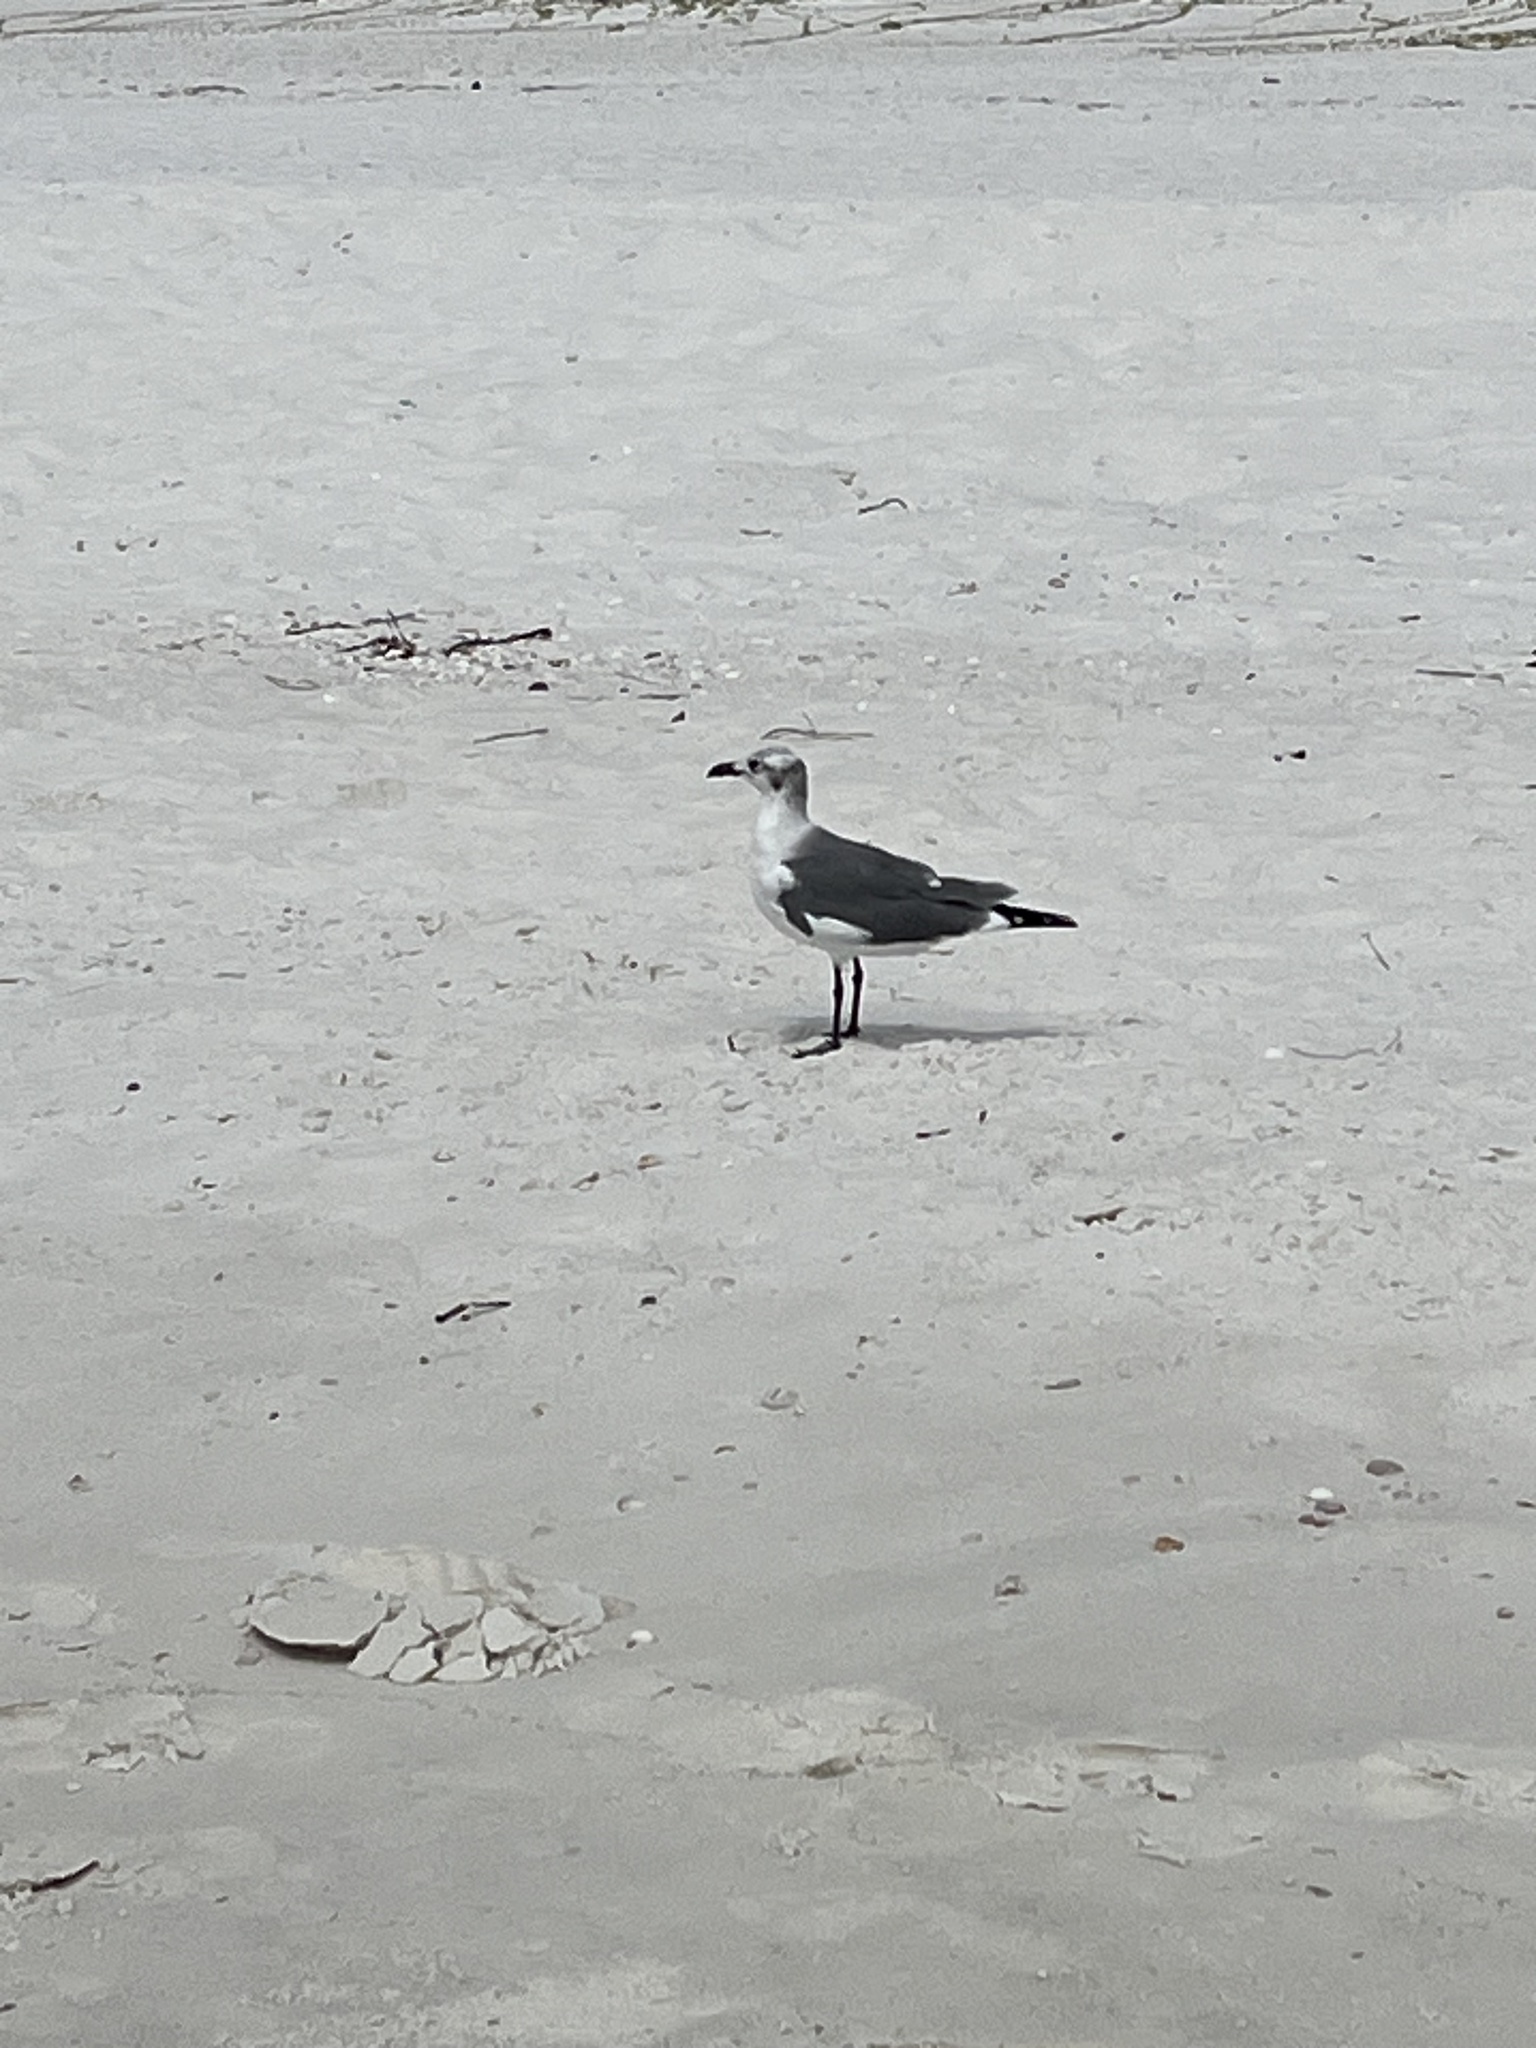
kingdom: Animalia
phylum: Chordata
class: Aves
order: Charadriiformes
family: Laridae
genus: Leucophaeus
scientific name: Leucophaeus atricilla
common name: Laughing gull
